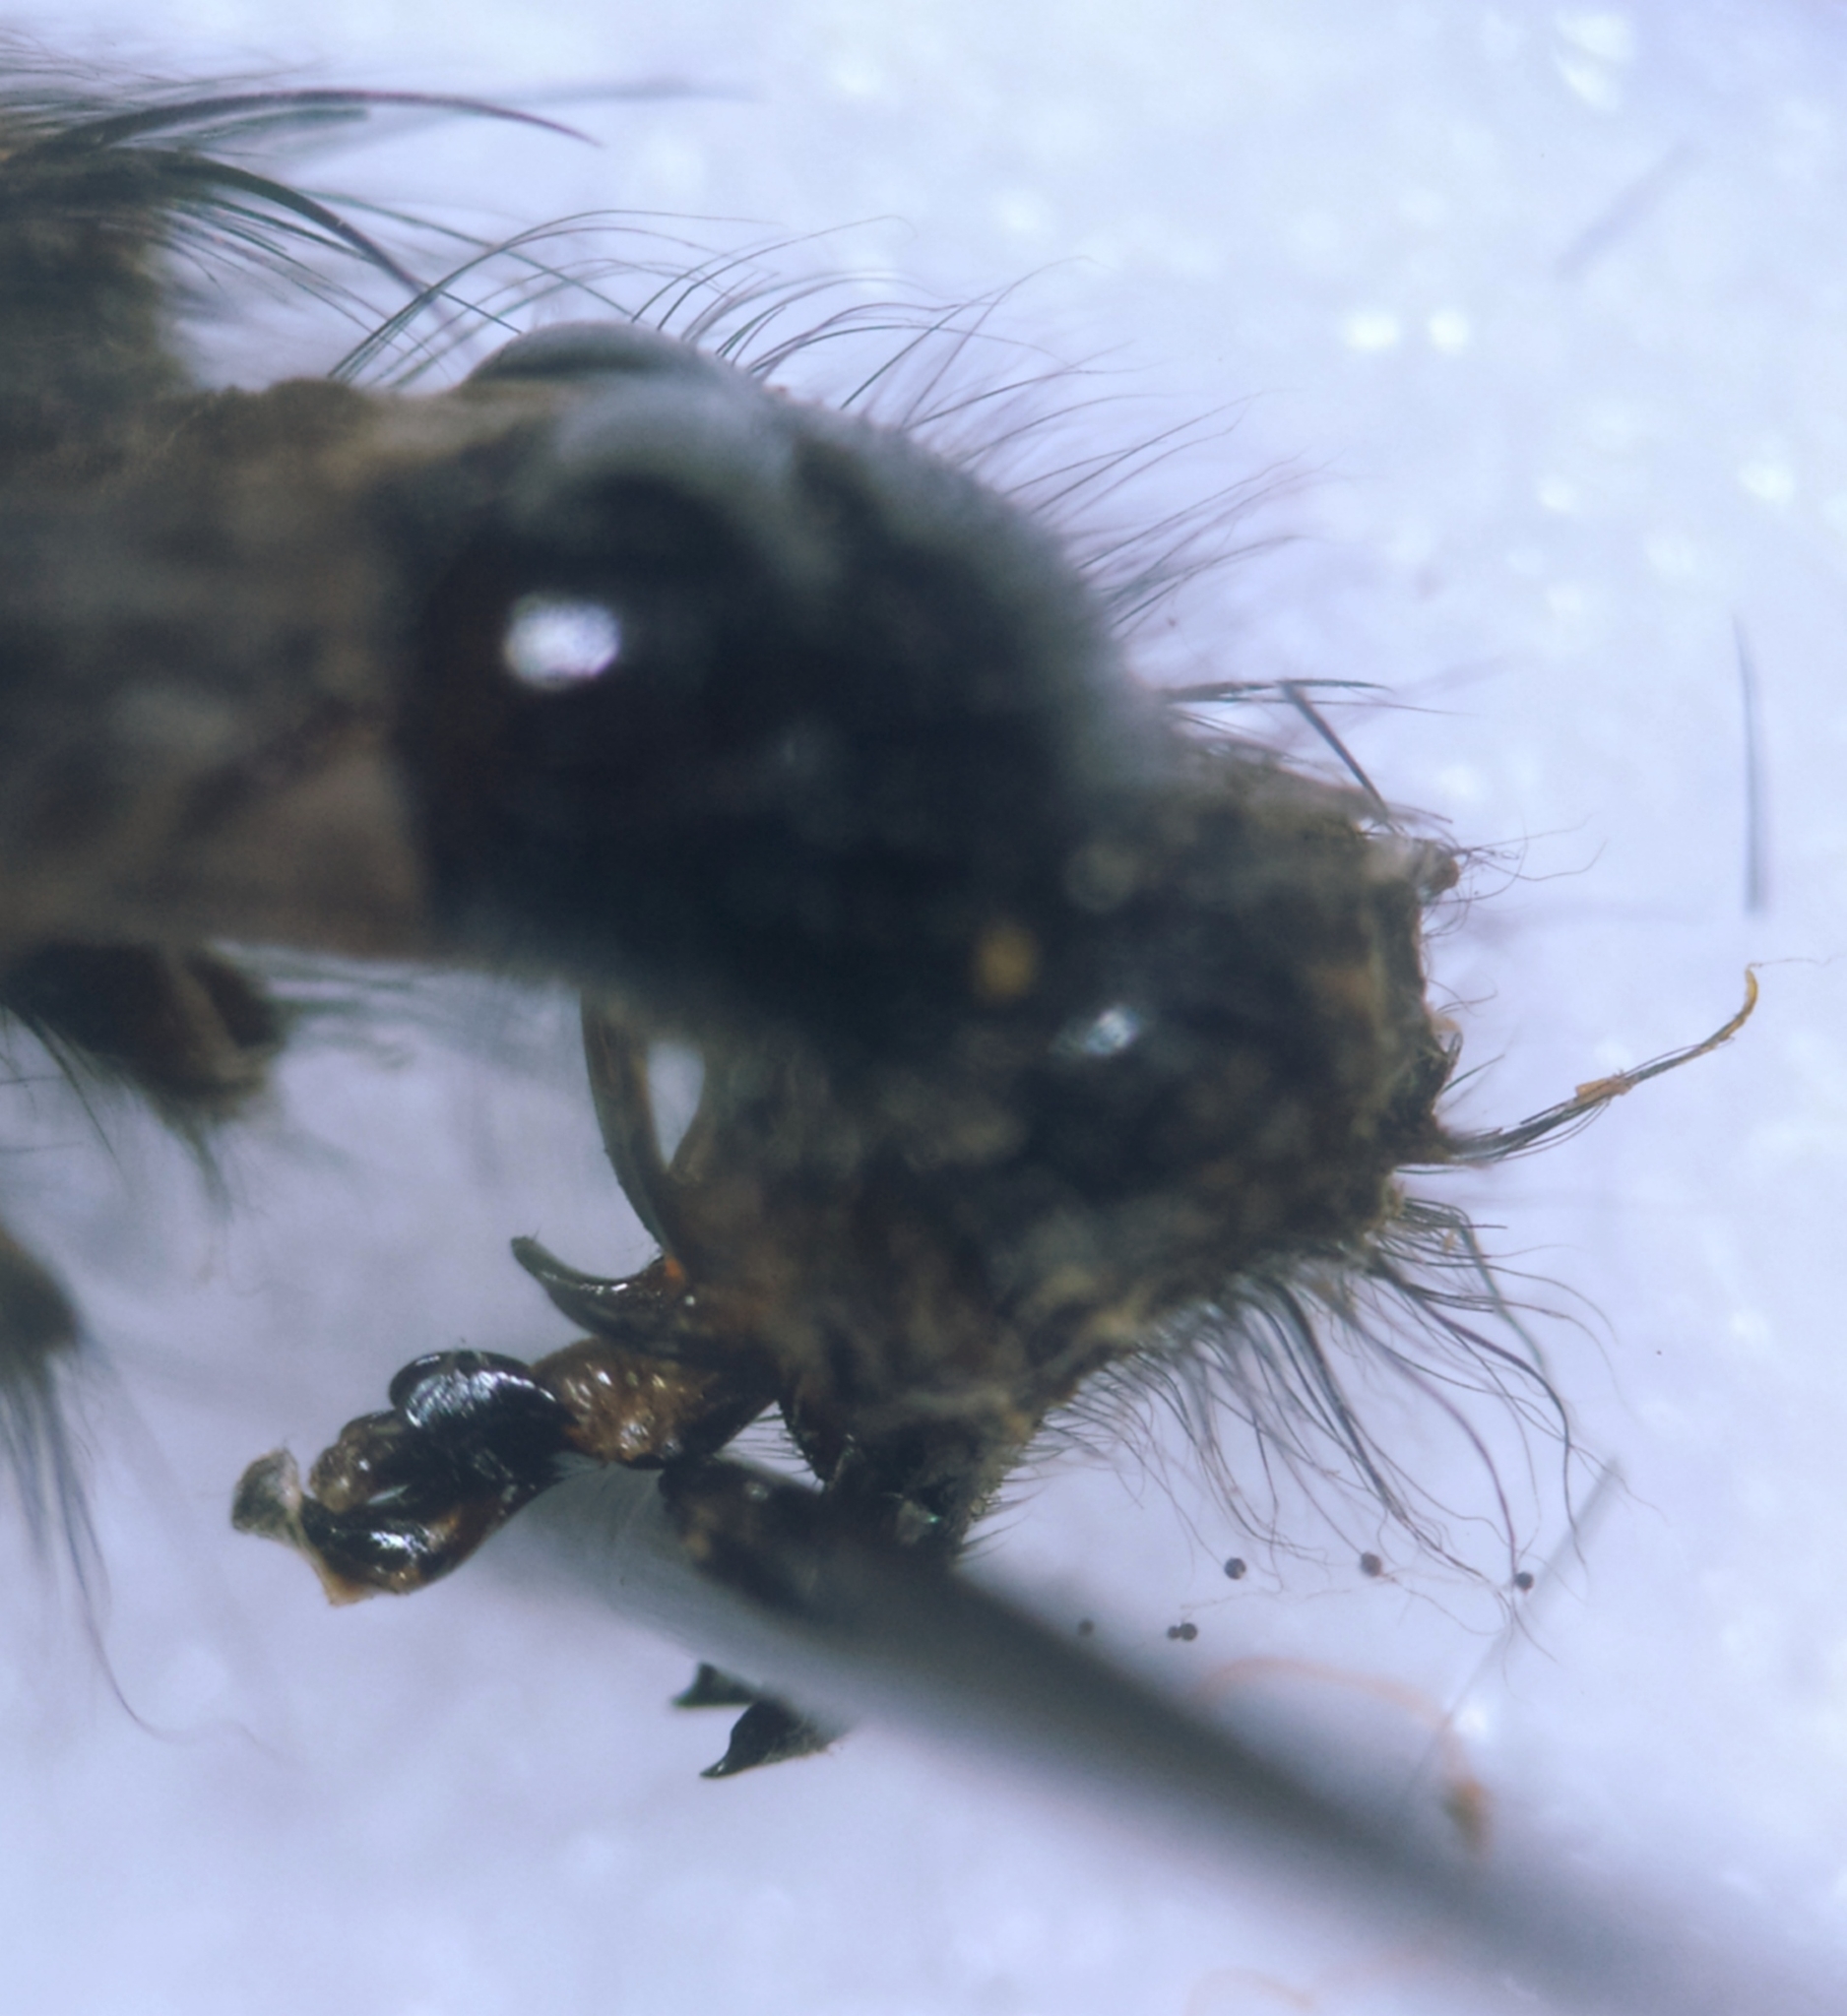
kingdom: Animalia
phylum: Arthropoda
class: Insecta
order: Diptera
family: Sarcophagidae
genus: Sarcophaga
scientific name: Sarcophaga variegata
